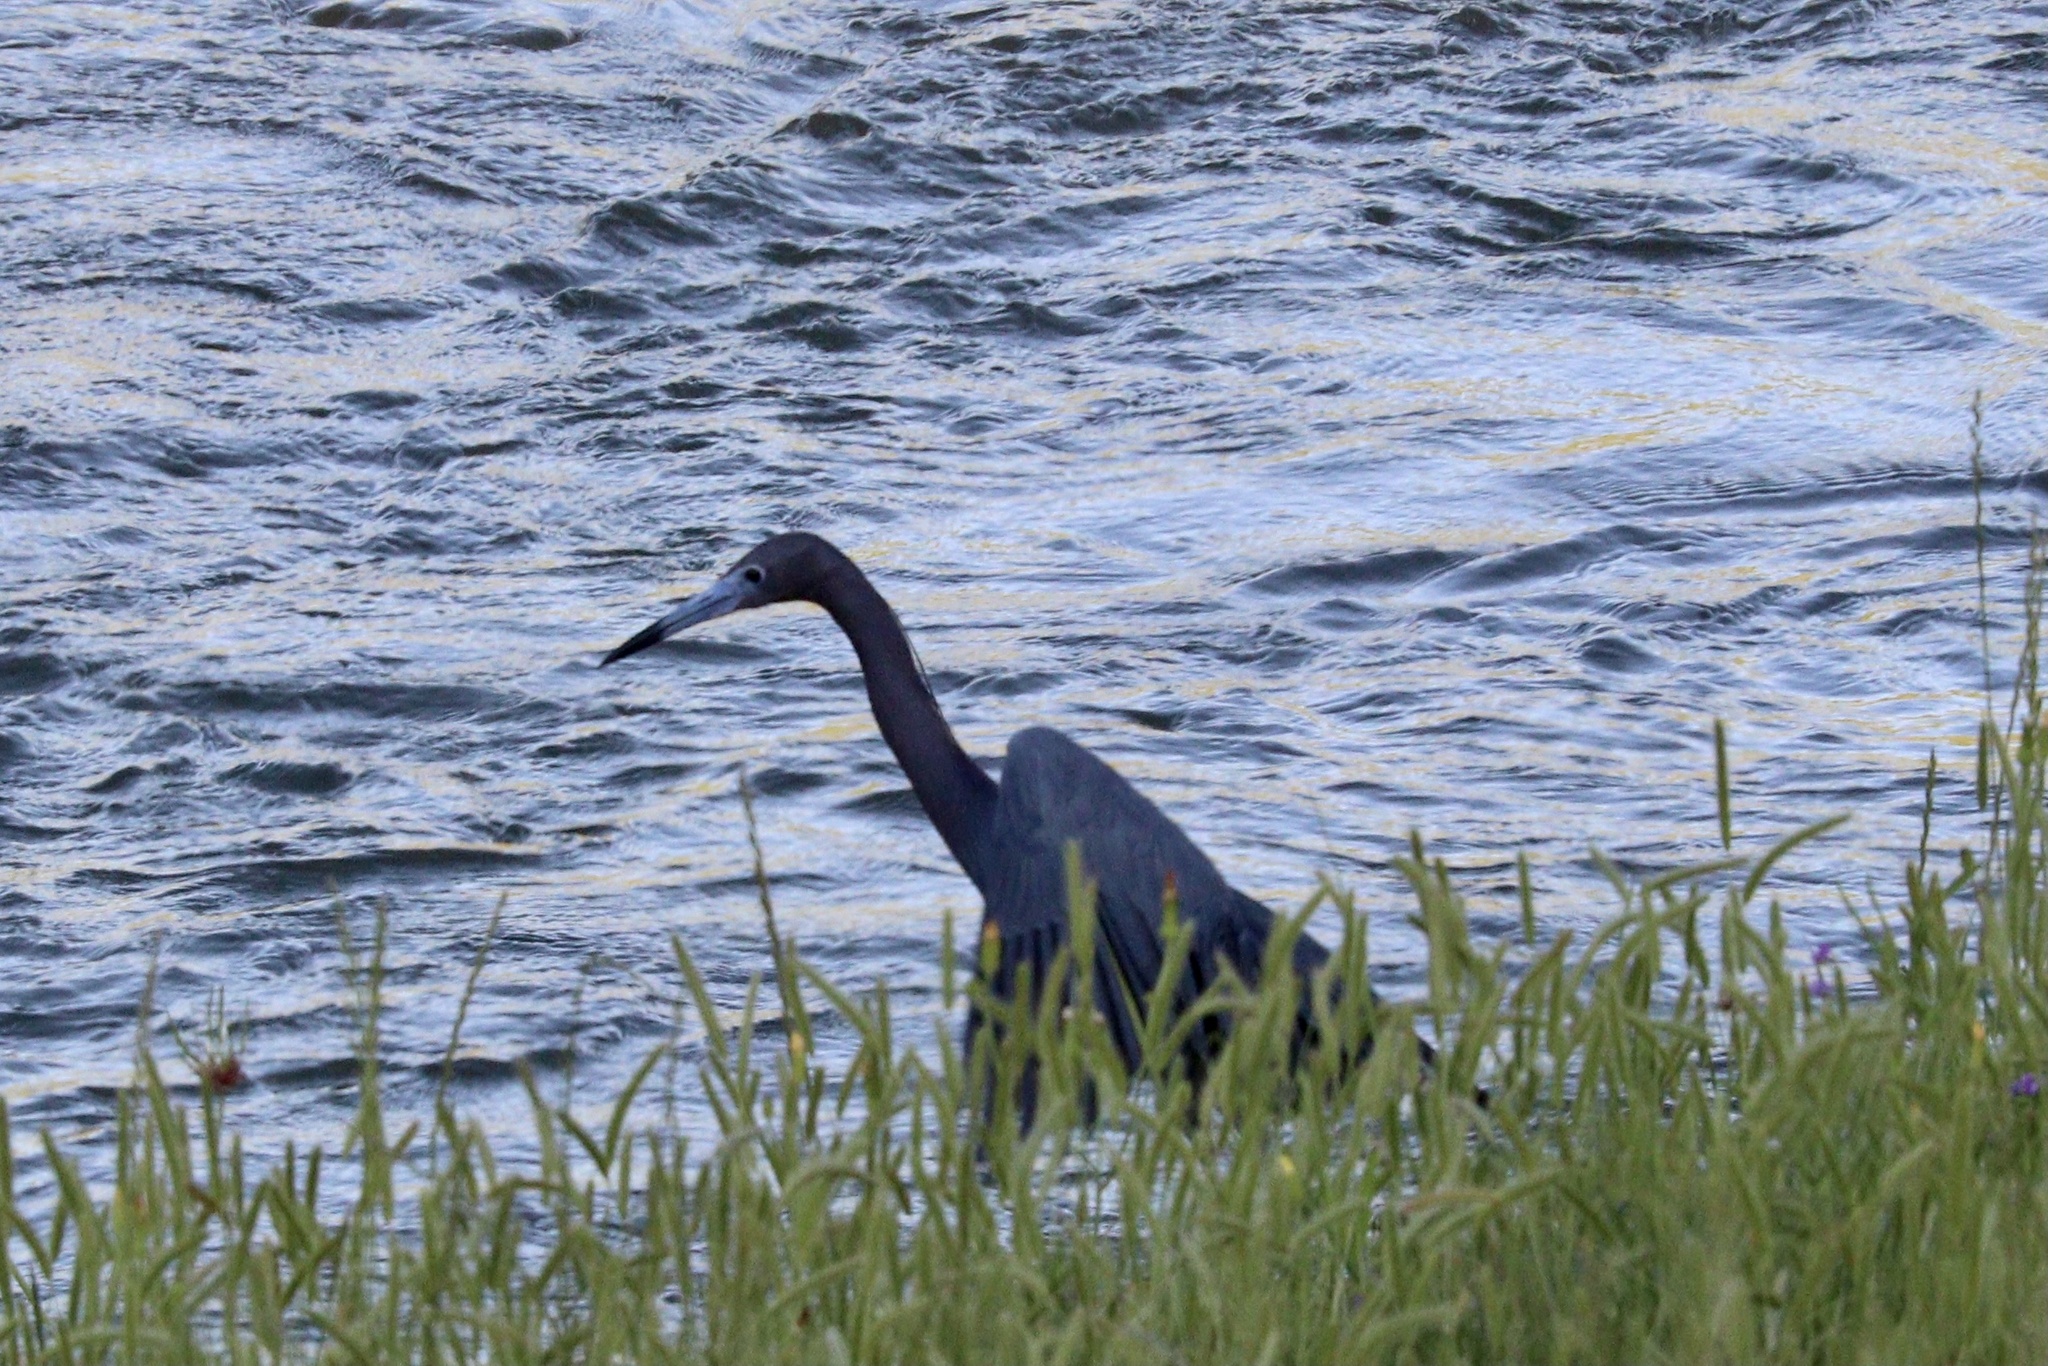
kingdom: Animalia
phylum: Chordata
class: Aves
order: Pelecaniformes
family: Ardeidae
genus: Egretta
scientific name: Egretta caerulea
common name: Little blue heron
